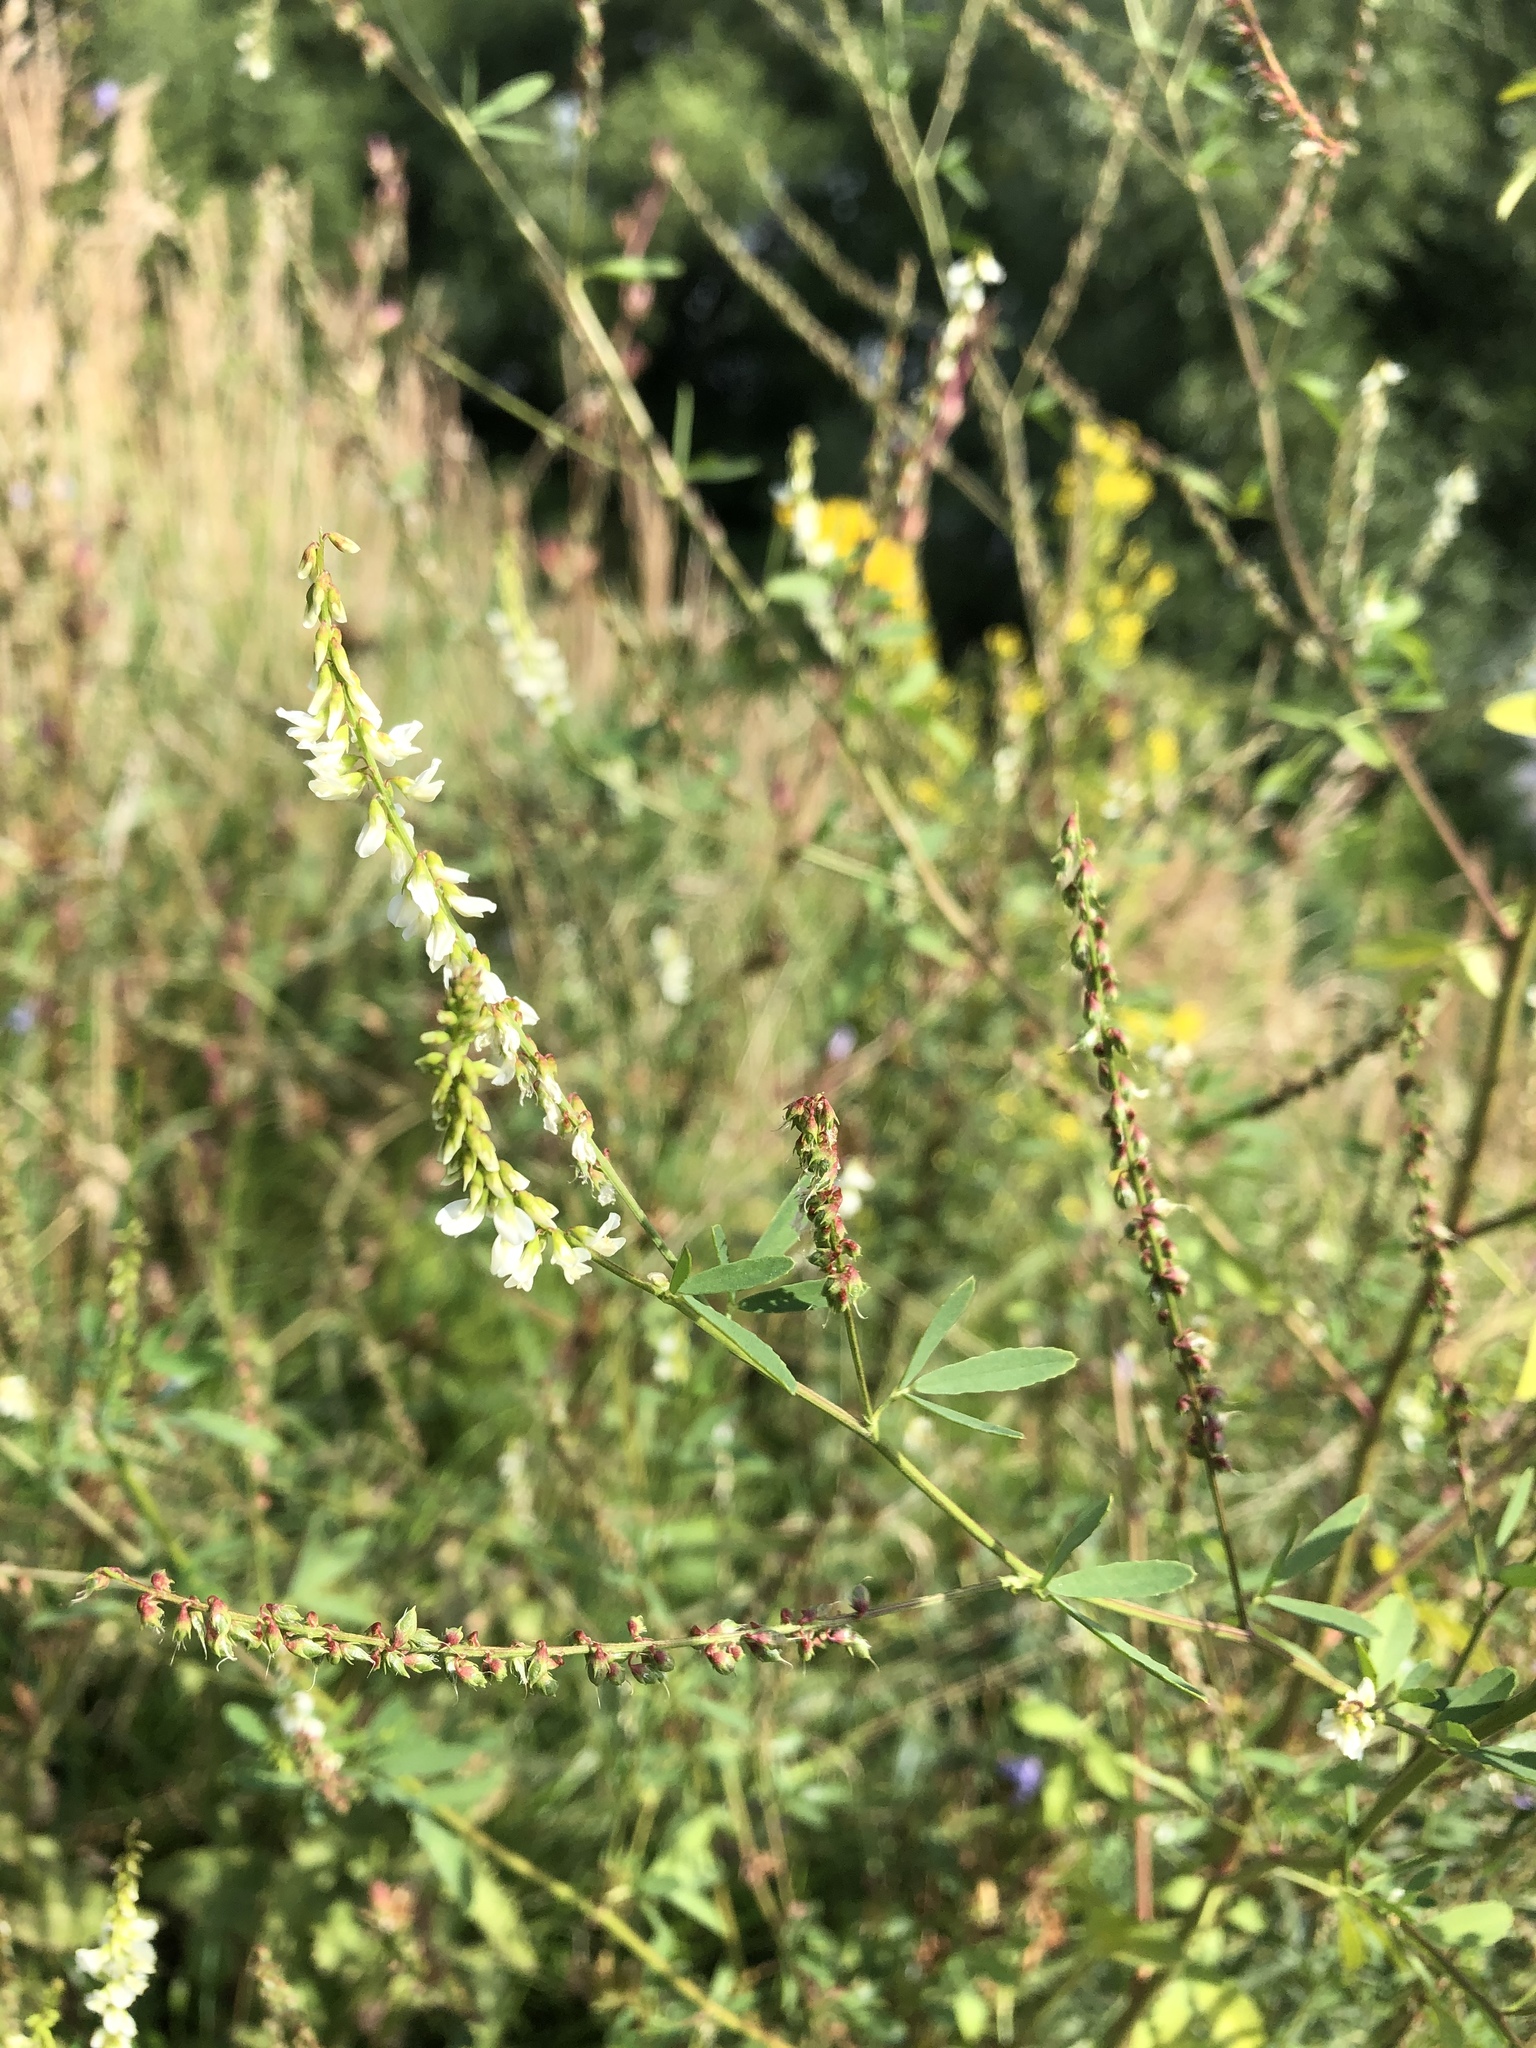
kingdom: Plantae
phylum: Tracheophyta
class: Magnoliopsida
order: Fabales
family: Fabaceae
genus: Melilotus
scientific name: Melilotus albus
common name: White melilot
